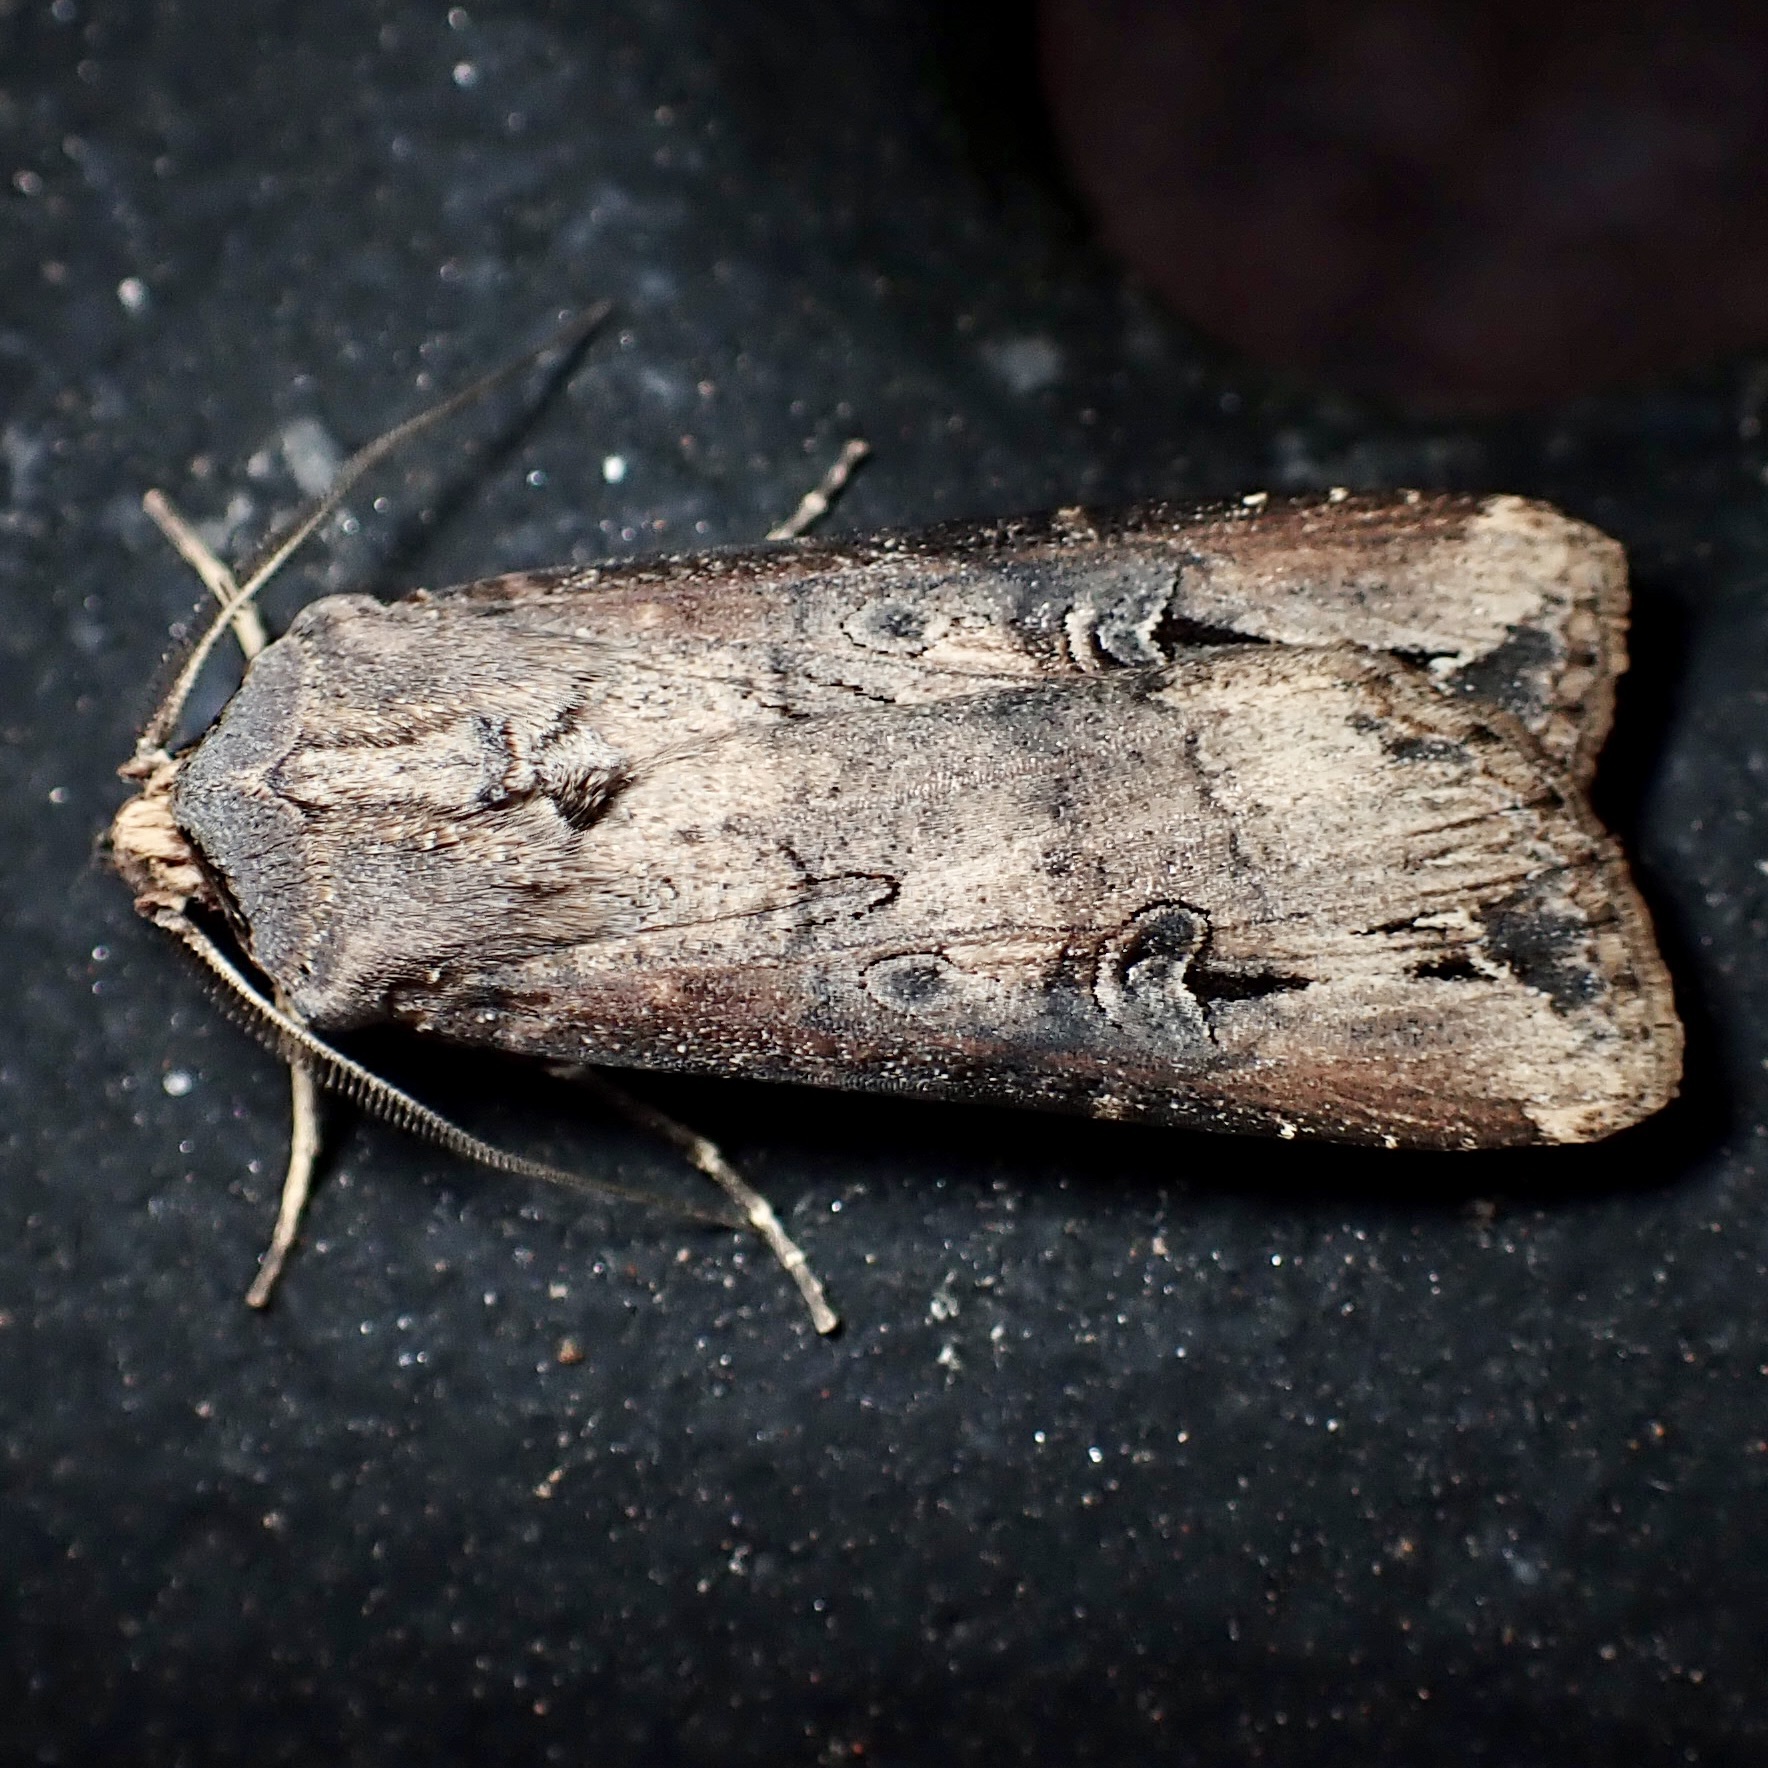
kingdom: Animalia
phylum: Arthropoda
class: Insecta
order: Lepidoptera
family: Noctuidae
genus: Agrotis
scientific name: Agrotis ipsilon
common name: Dark sword-grass
